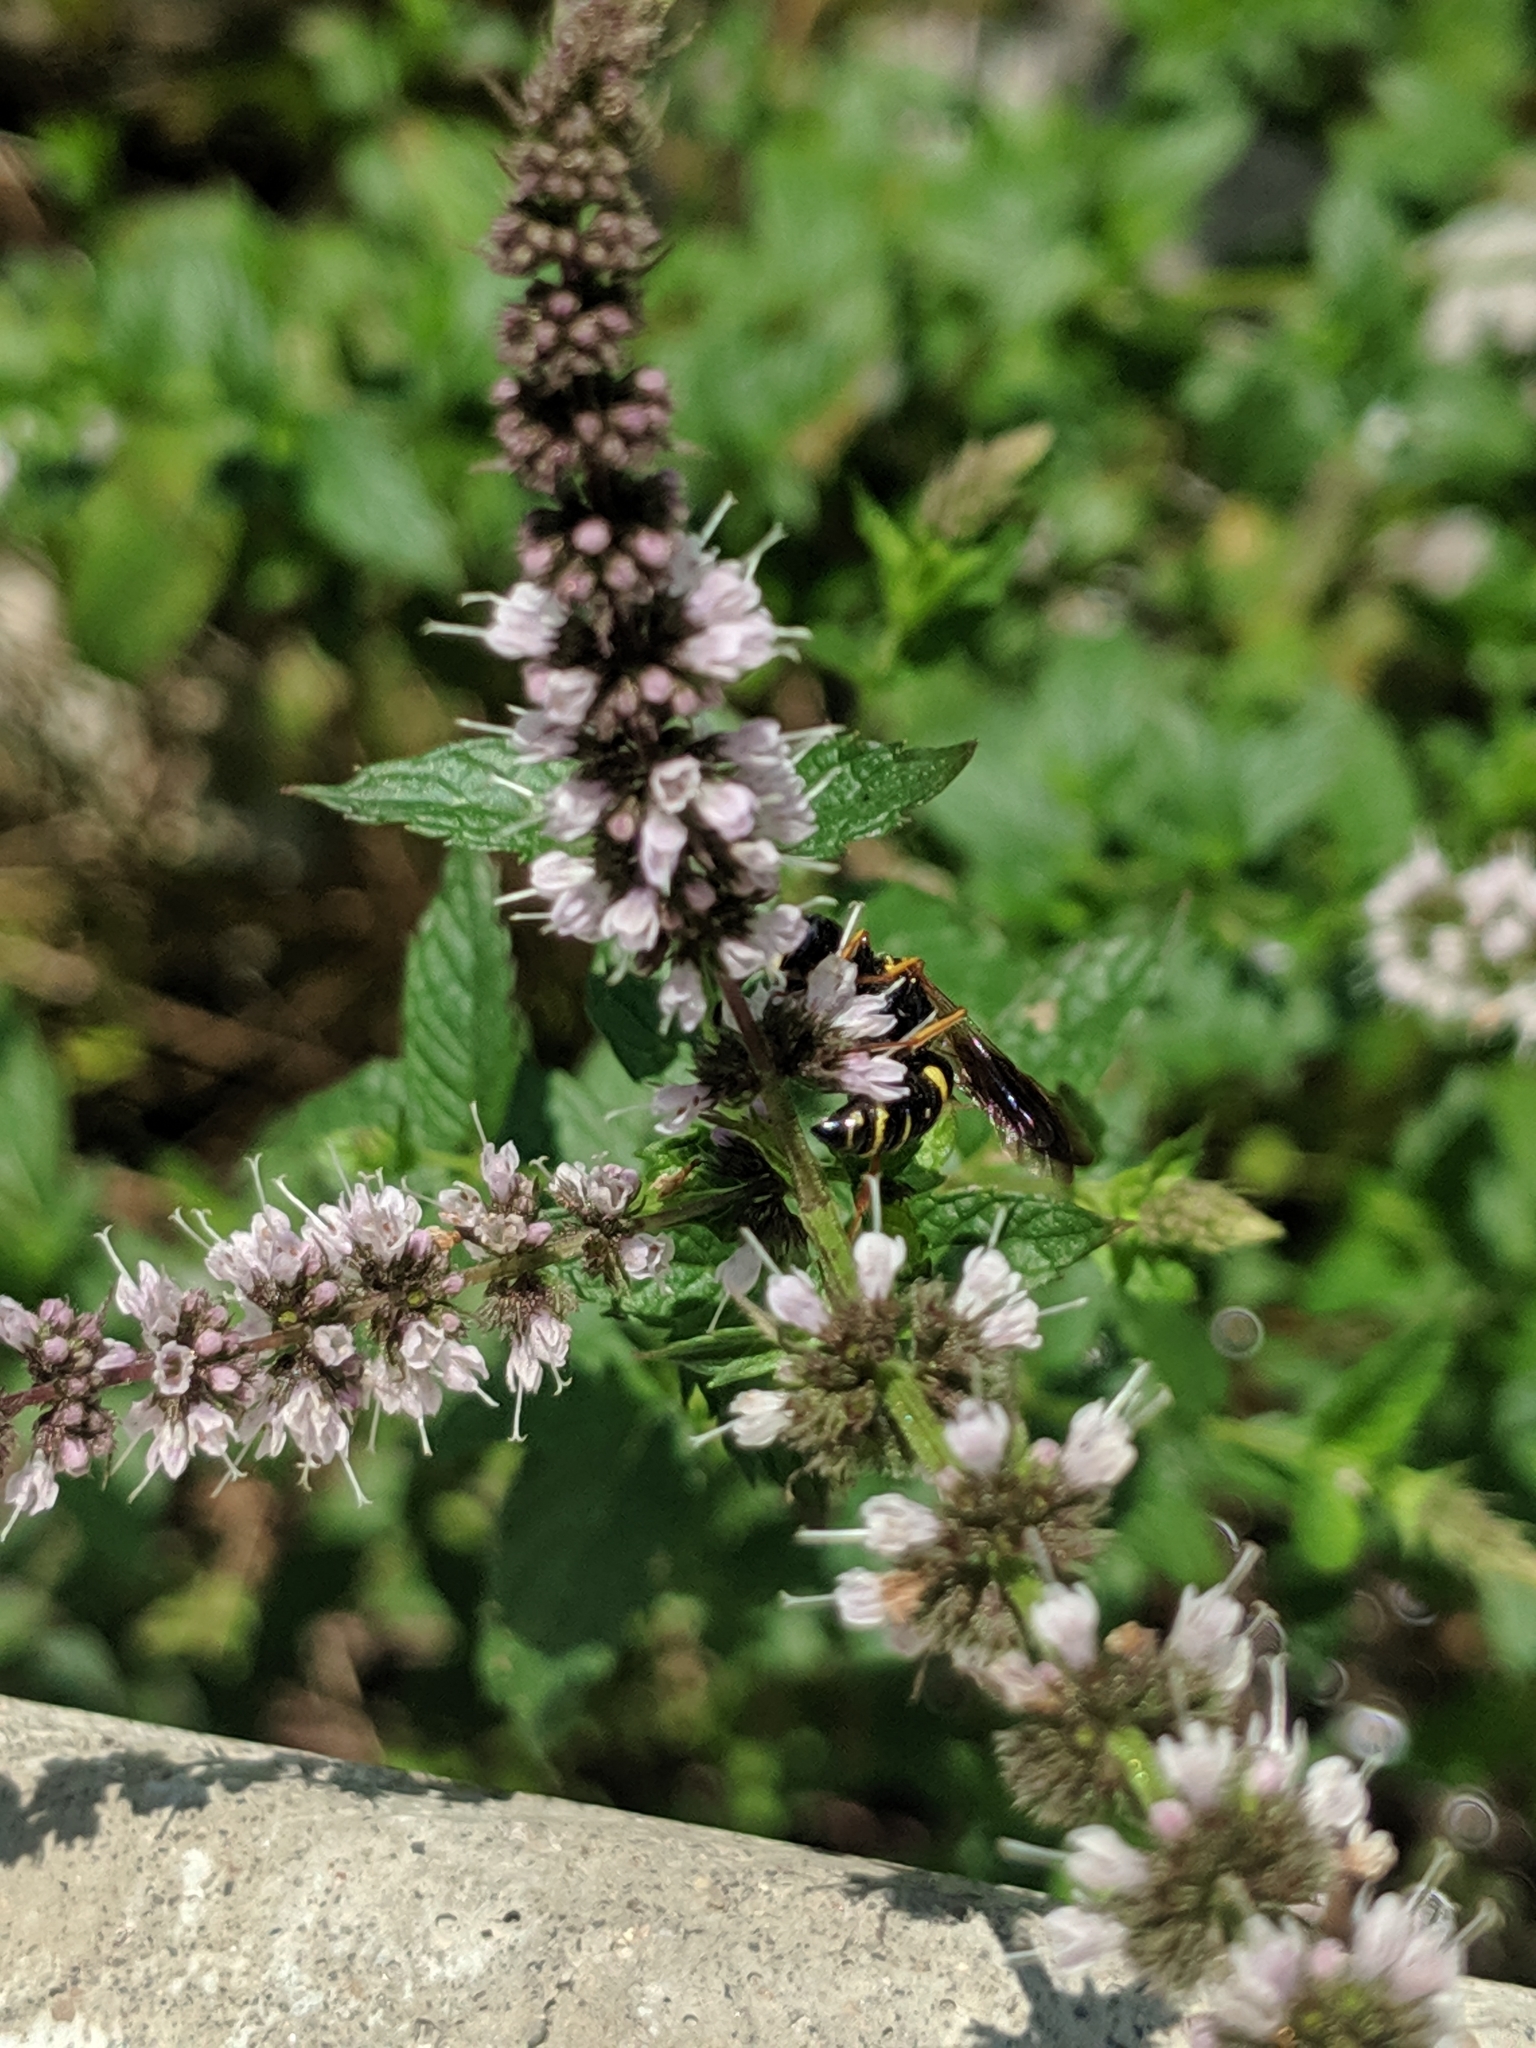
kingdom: Animalia
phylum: Arthropoda
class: Insecta
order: Hymenoptera
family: Crabronidae
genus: Philanthus
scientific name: Philanthus gibbosus
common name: Humped beewolf
